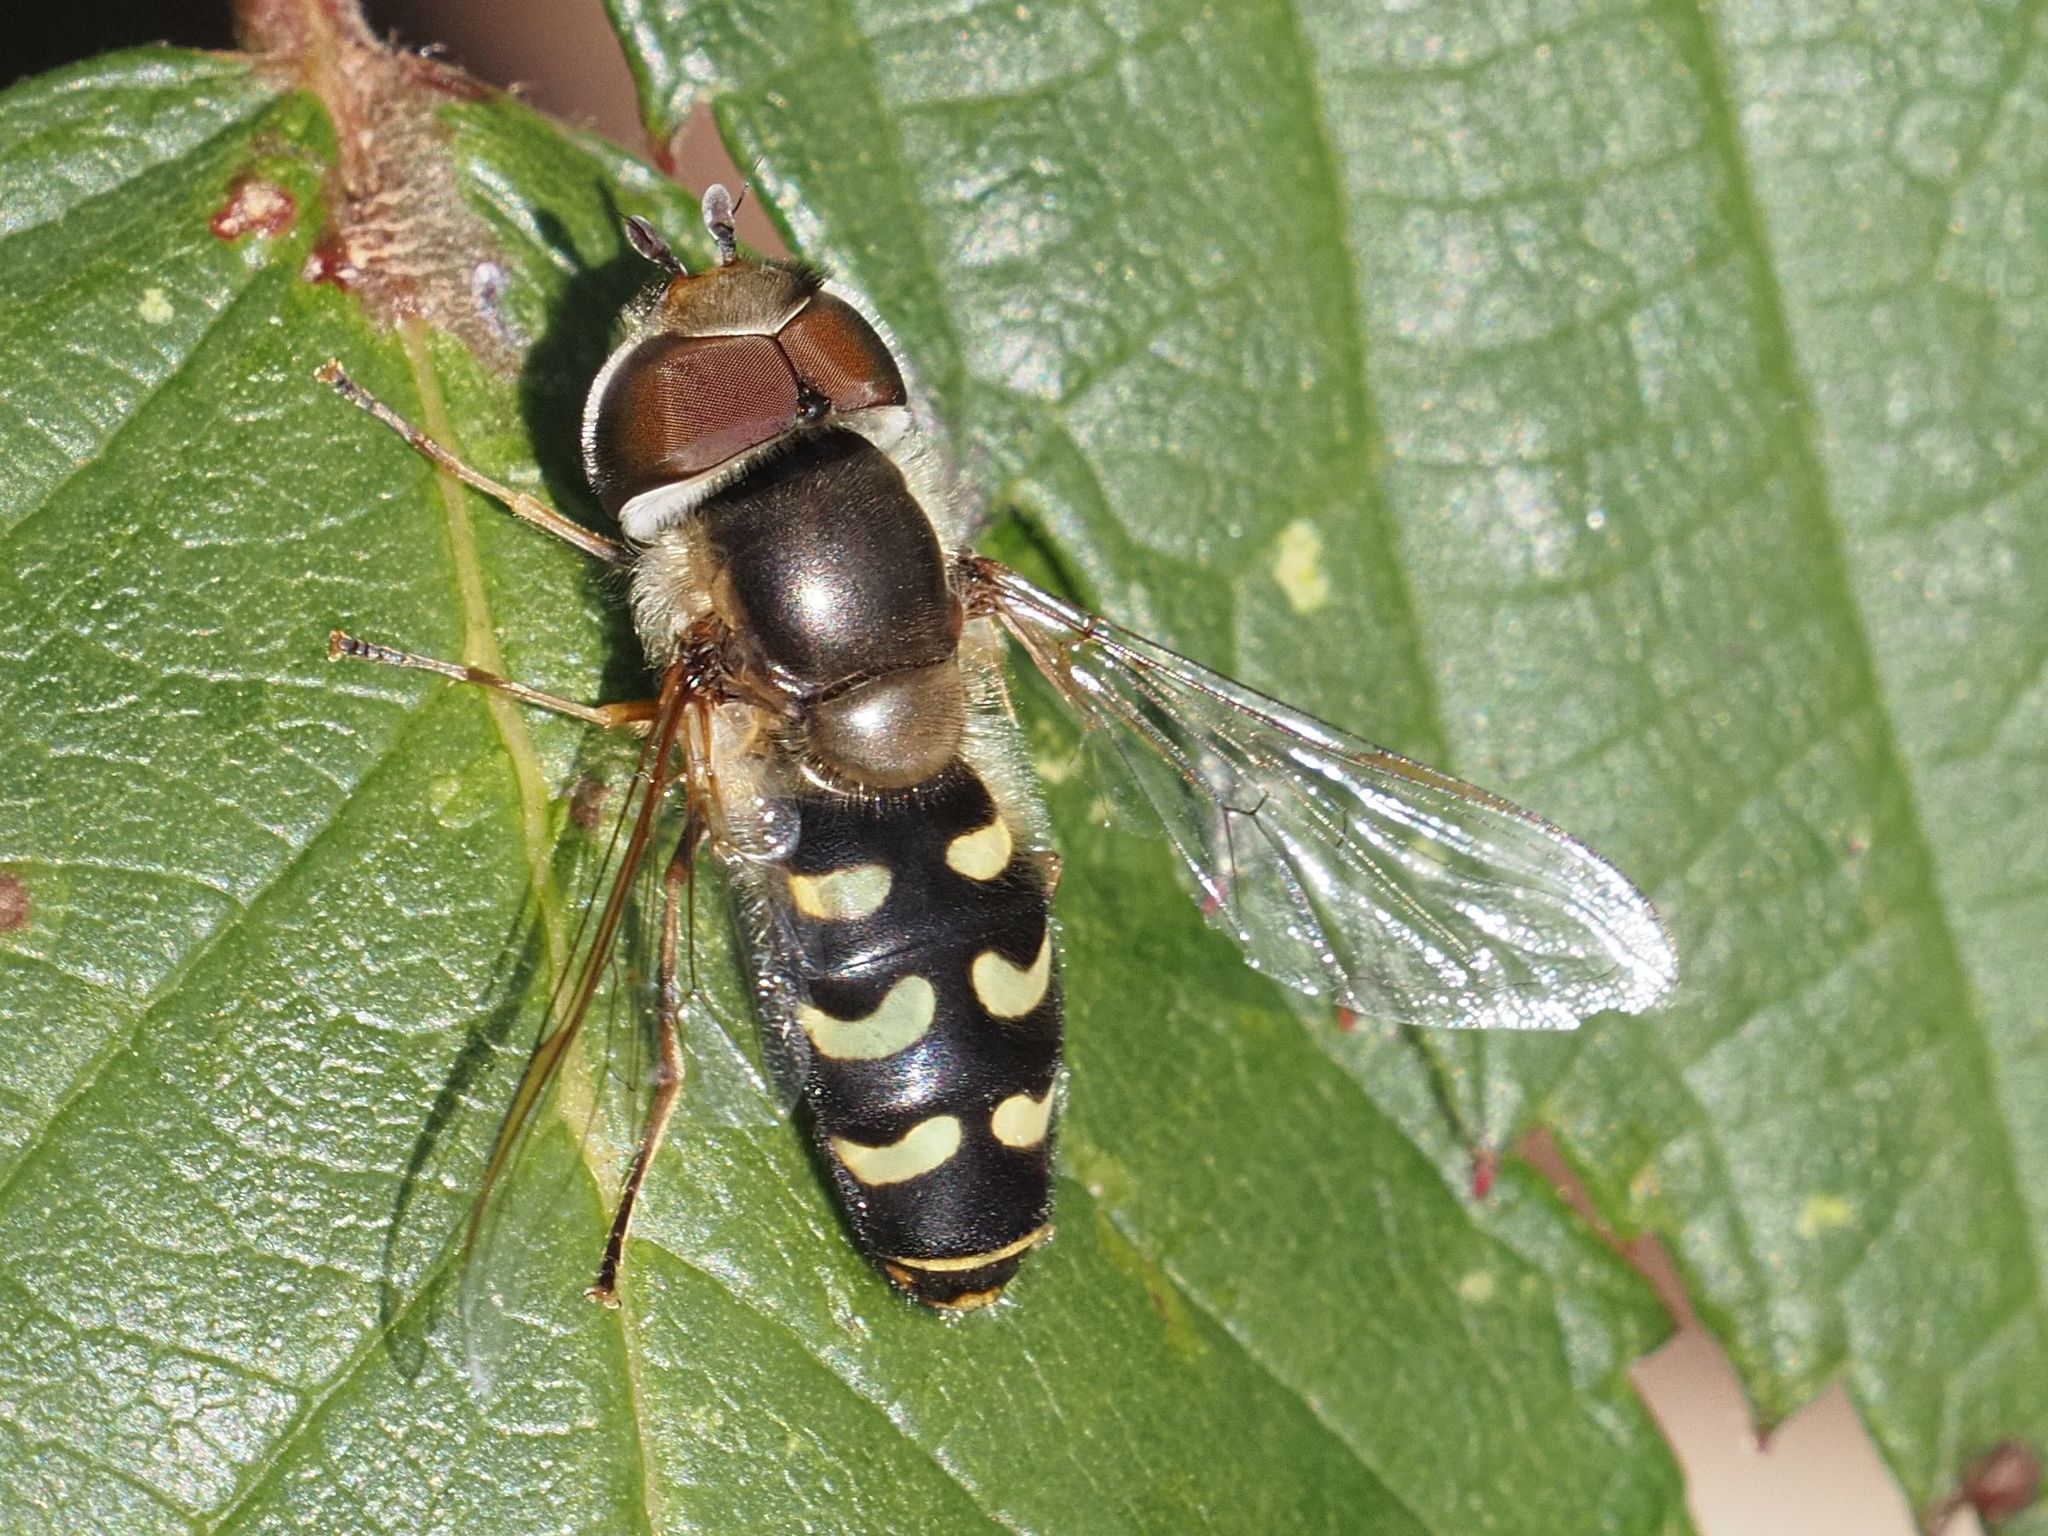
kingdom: Animalia
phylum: Arthropoda
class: Insecta
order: Diptera
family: Syrphidae
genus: Scaeva
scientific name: Scaeva selenitica
